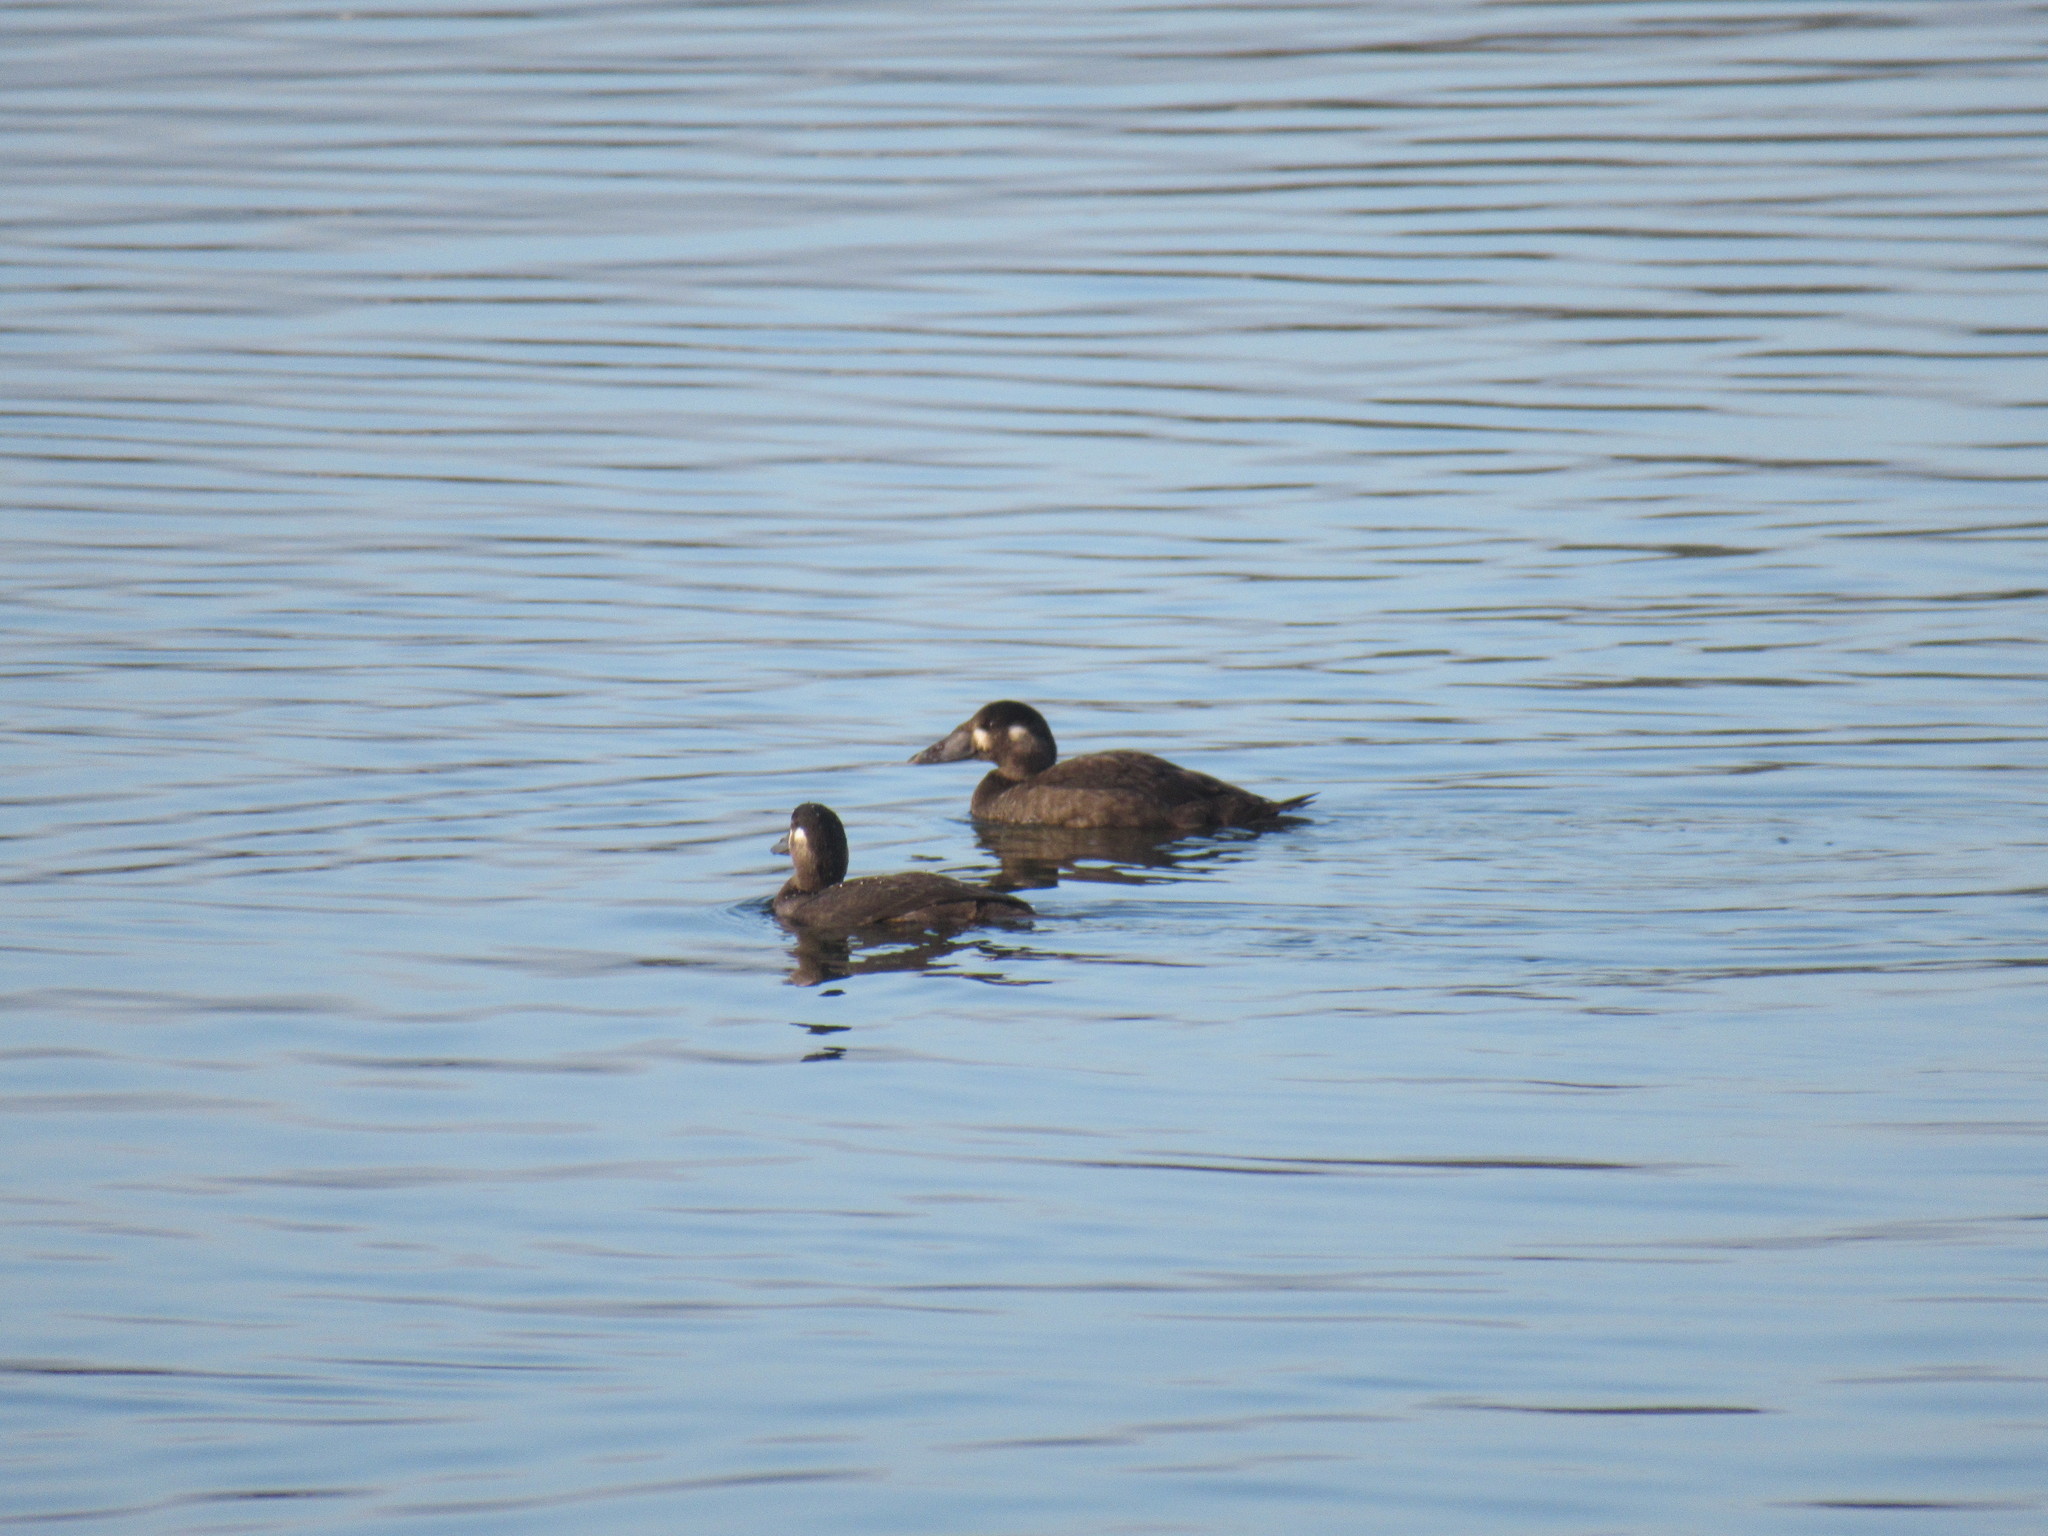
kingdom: Animalia
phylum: Chordata
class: Aves
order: Anseriformes
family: Anatidae
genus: Melanitta
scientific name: Melanitta perspicillata
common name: Surf scoter
